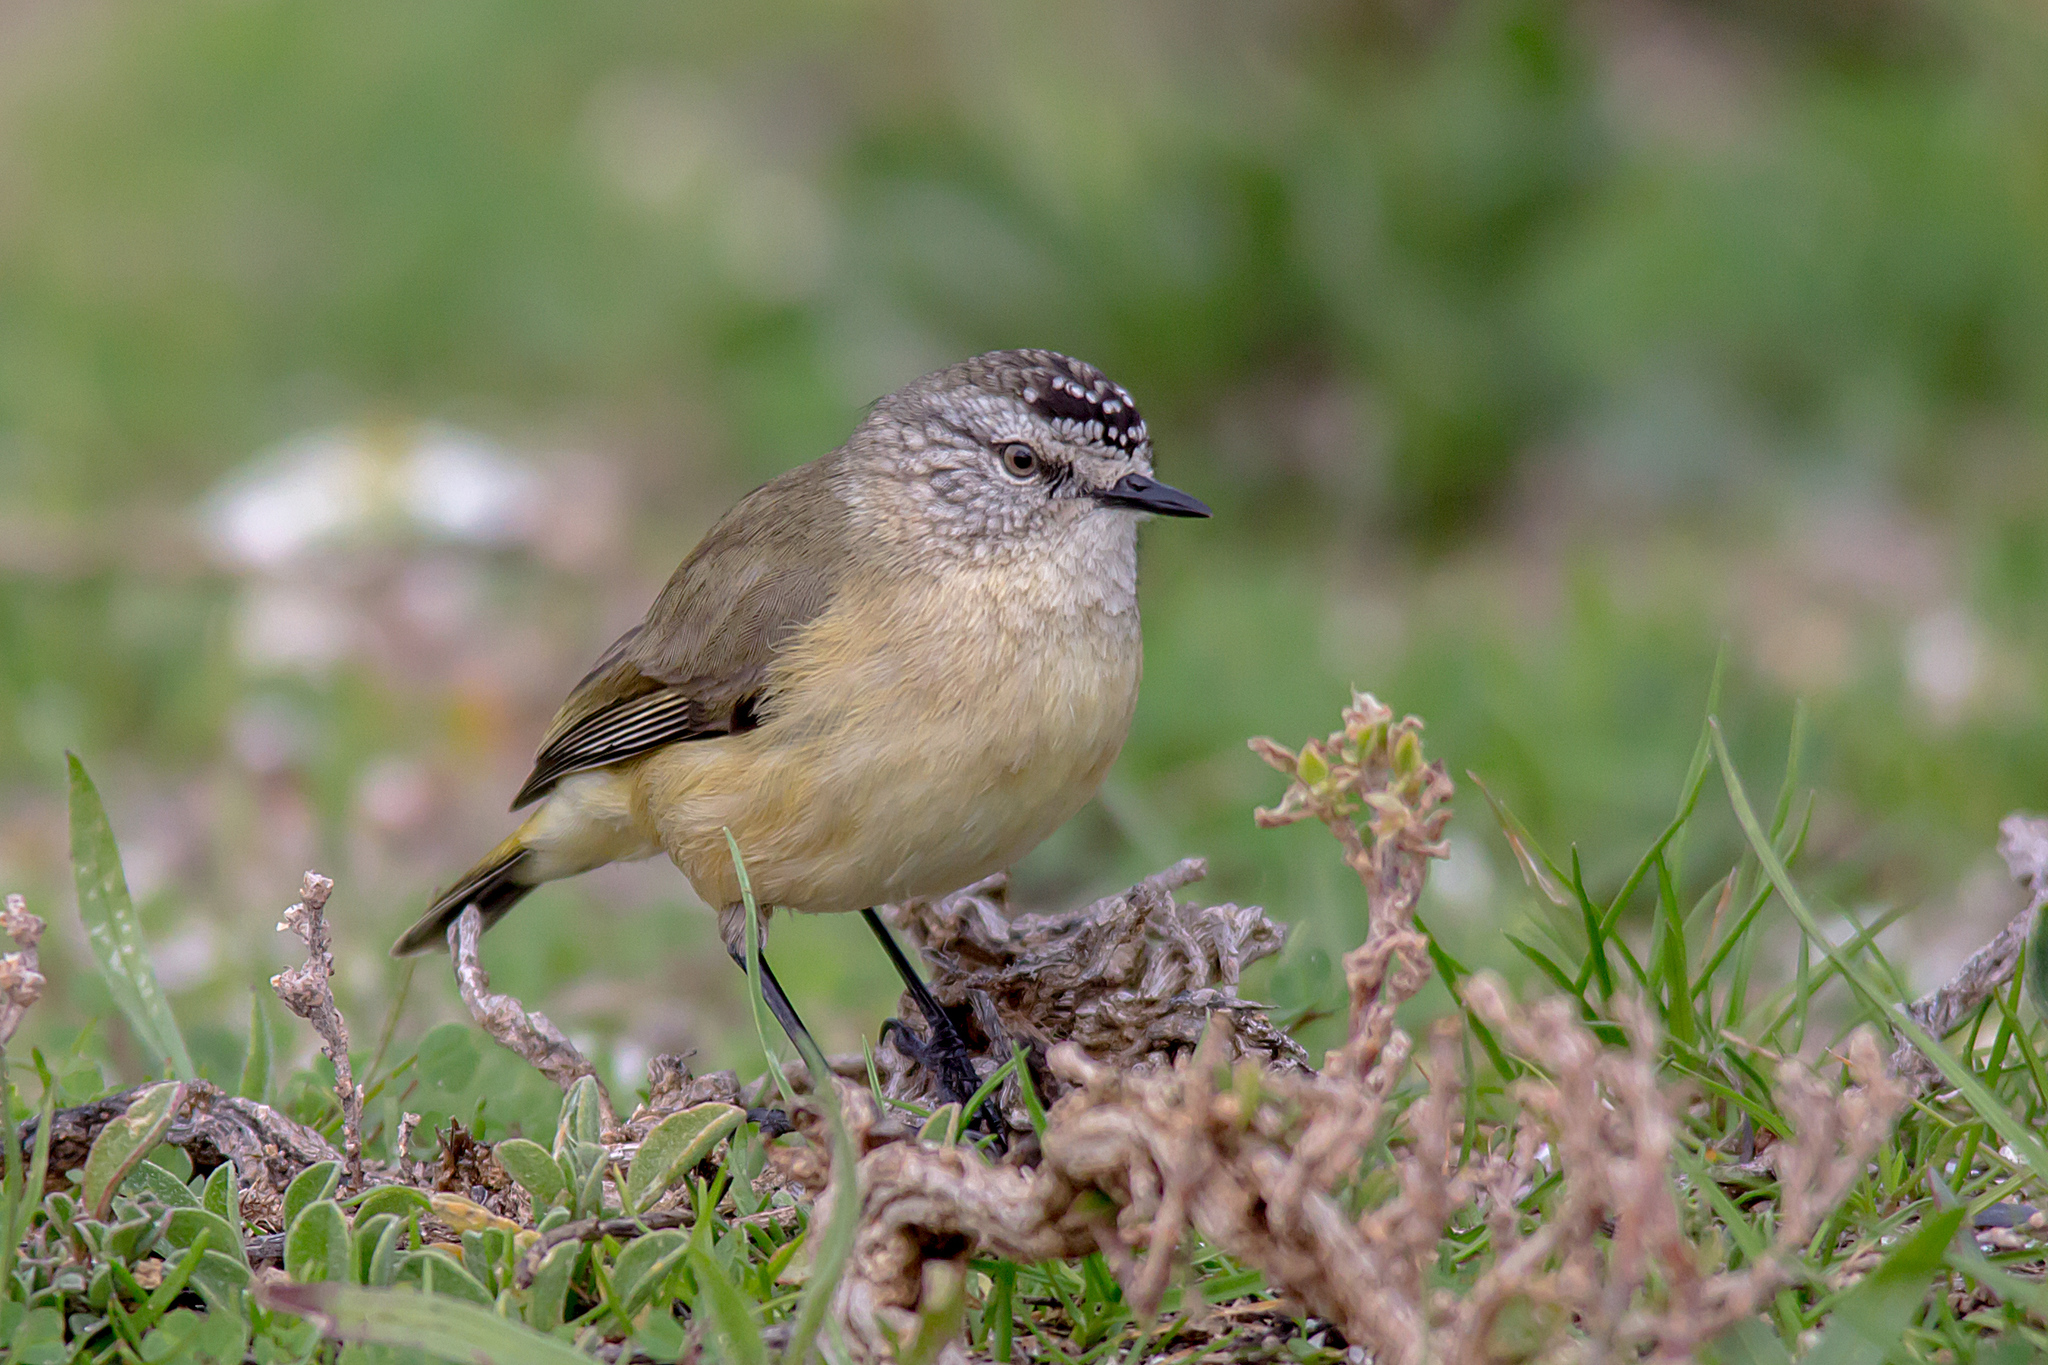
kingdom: Animalia
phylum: Chordata
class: Aves
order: Passeriformes
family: Acanthizidae
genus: Acanthiza
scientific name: Acanthiza chrysorrhoa
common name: Yellow-rumped thornbill
